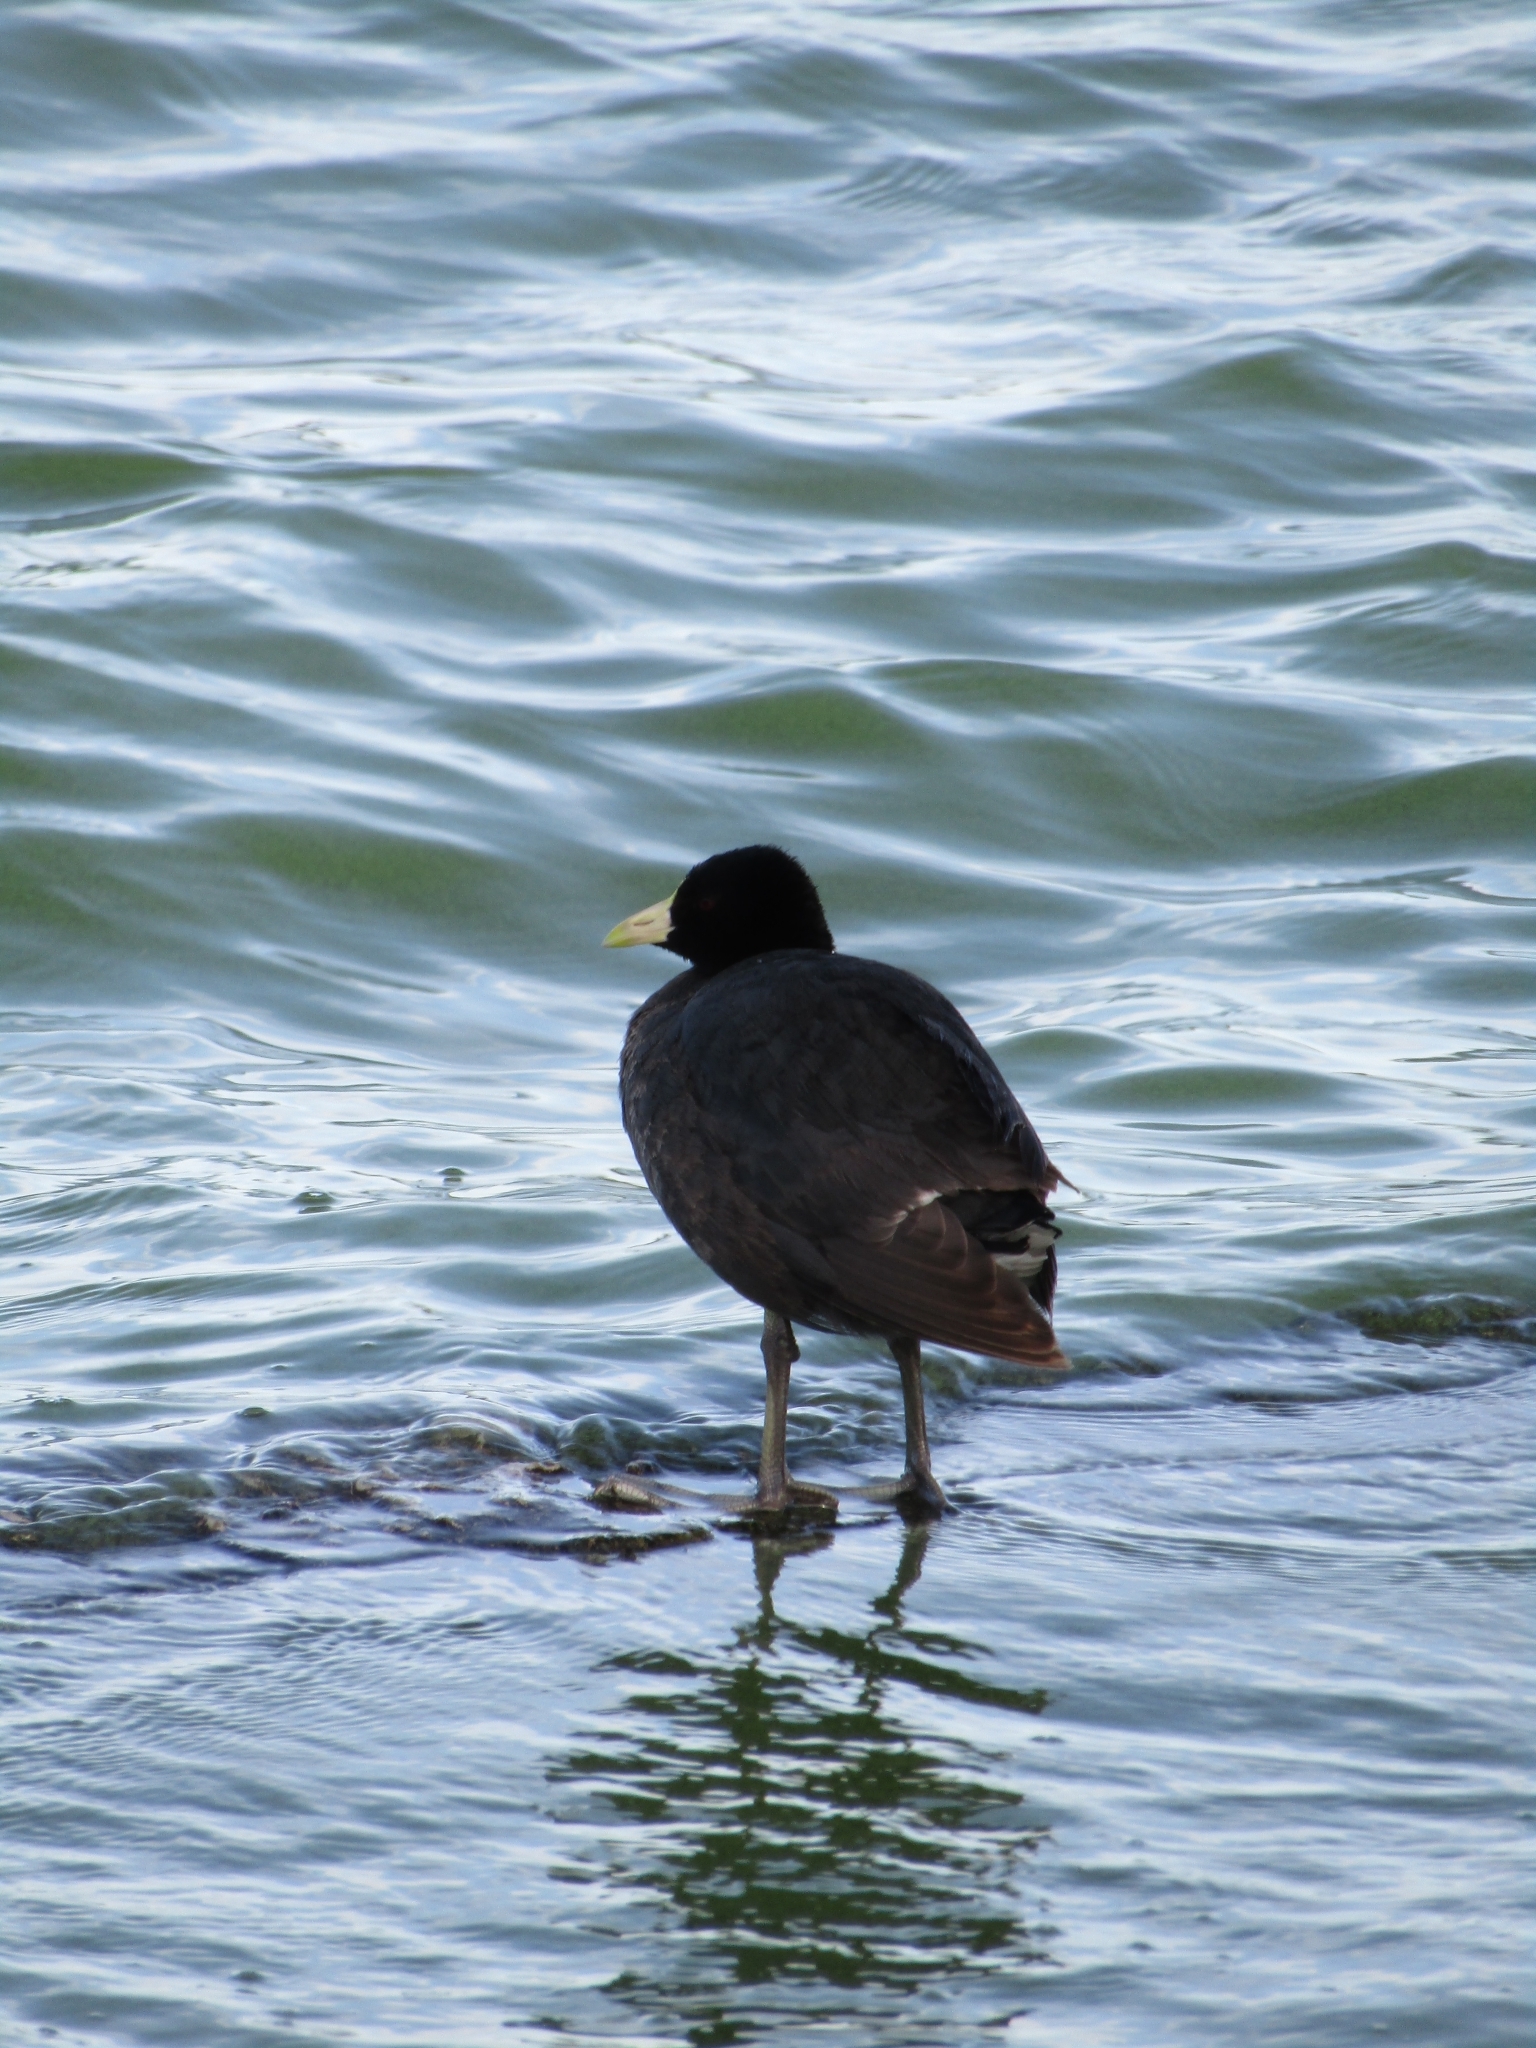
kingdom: Animalia
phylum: Chordata
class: Aves
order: Gruiformes
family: Rallidae
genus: Fulica
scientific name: Fulica leucoptera
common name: White-winged coot
